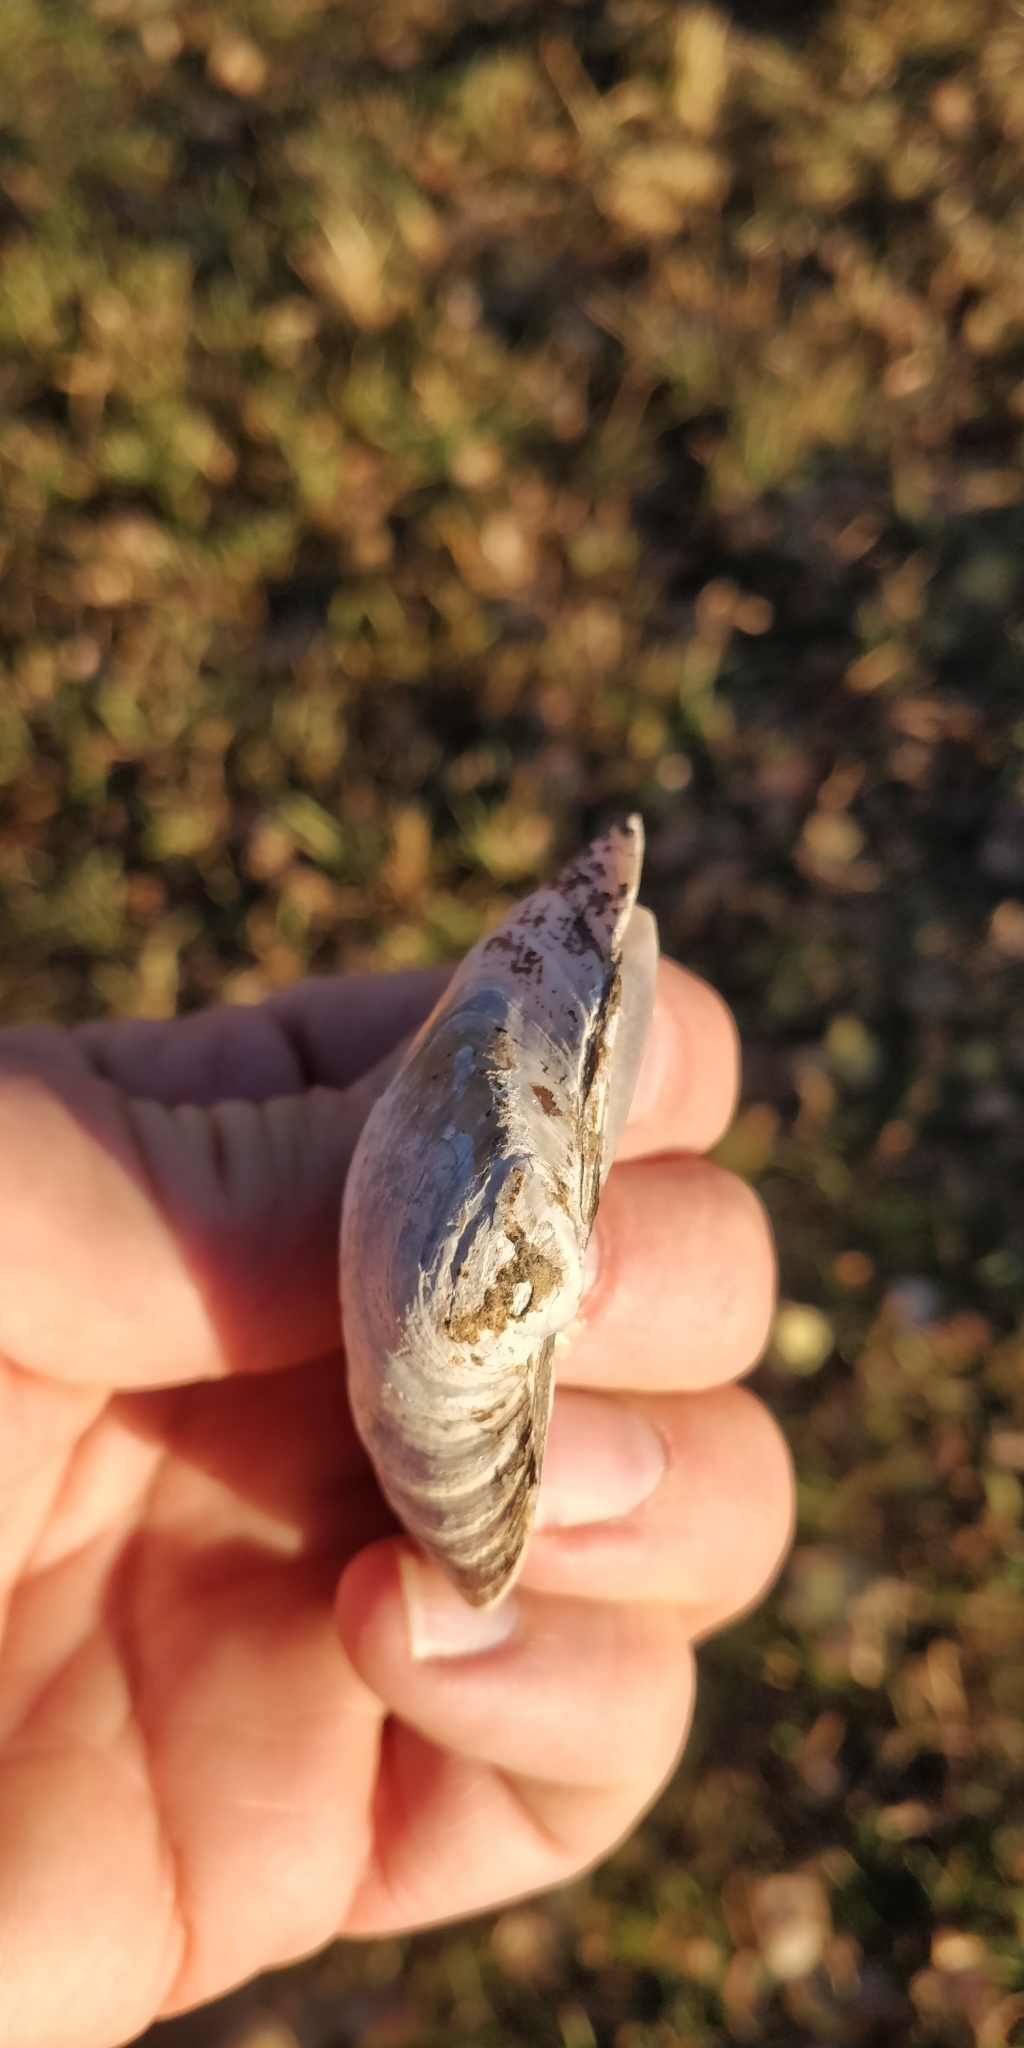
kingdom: Animalia
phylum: Mollusca
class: Bivalvia
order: Unionida
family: Unionidae
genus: Truncilla
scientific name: Truncilla truncata
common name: Deertoe
